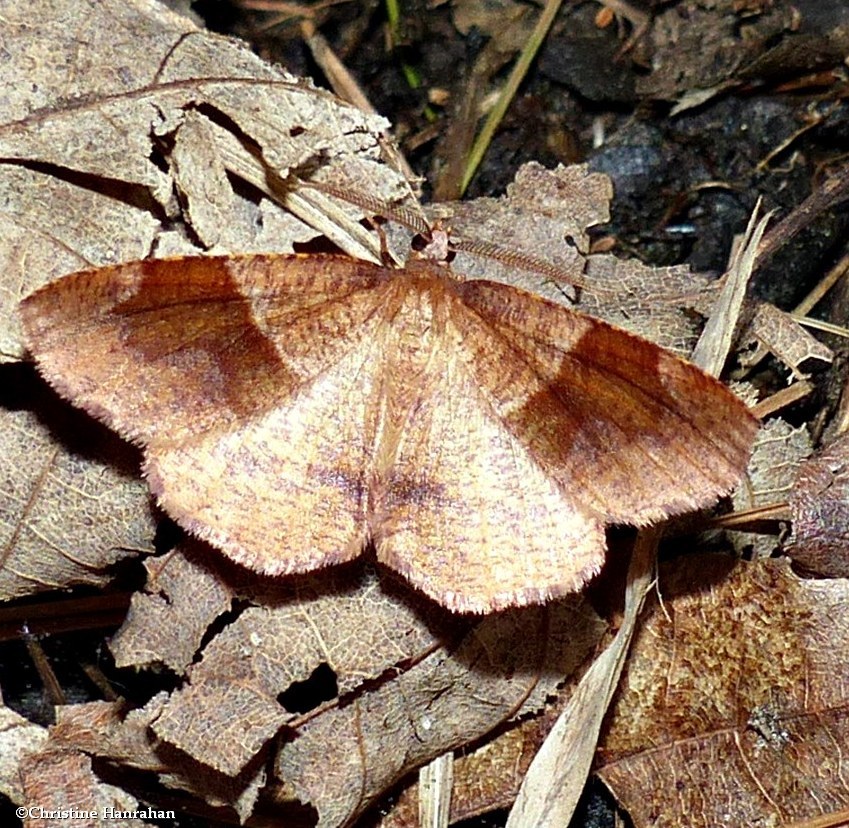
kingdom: Animalia
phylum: Arthropoda
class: Insecta
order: Lepidoptera
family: Geometridae
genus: Plagodis
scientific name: Plagodis pulveraria
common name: Barred umber
